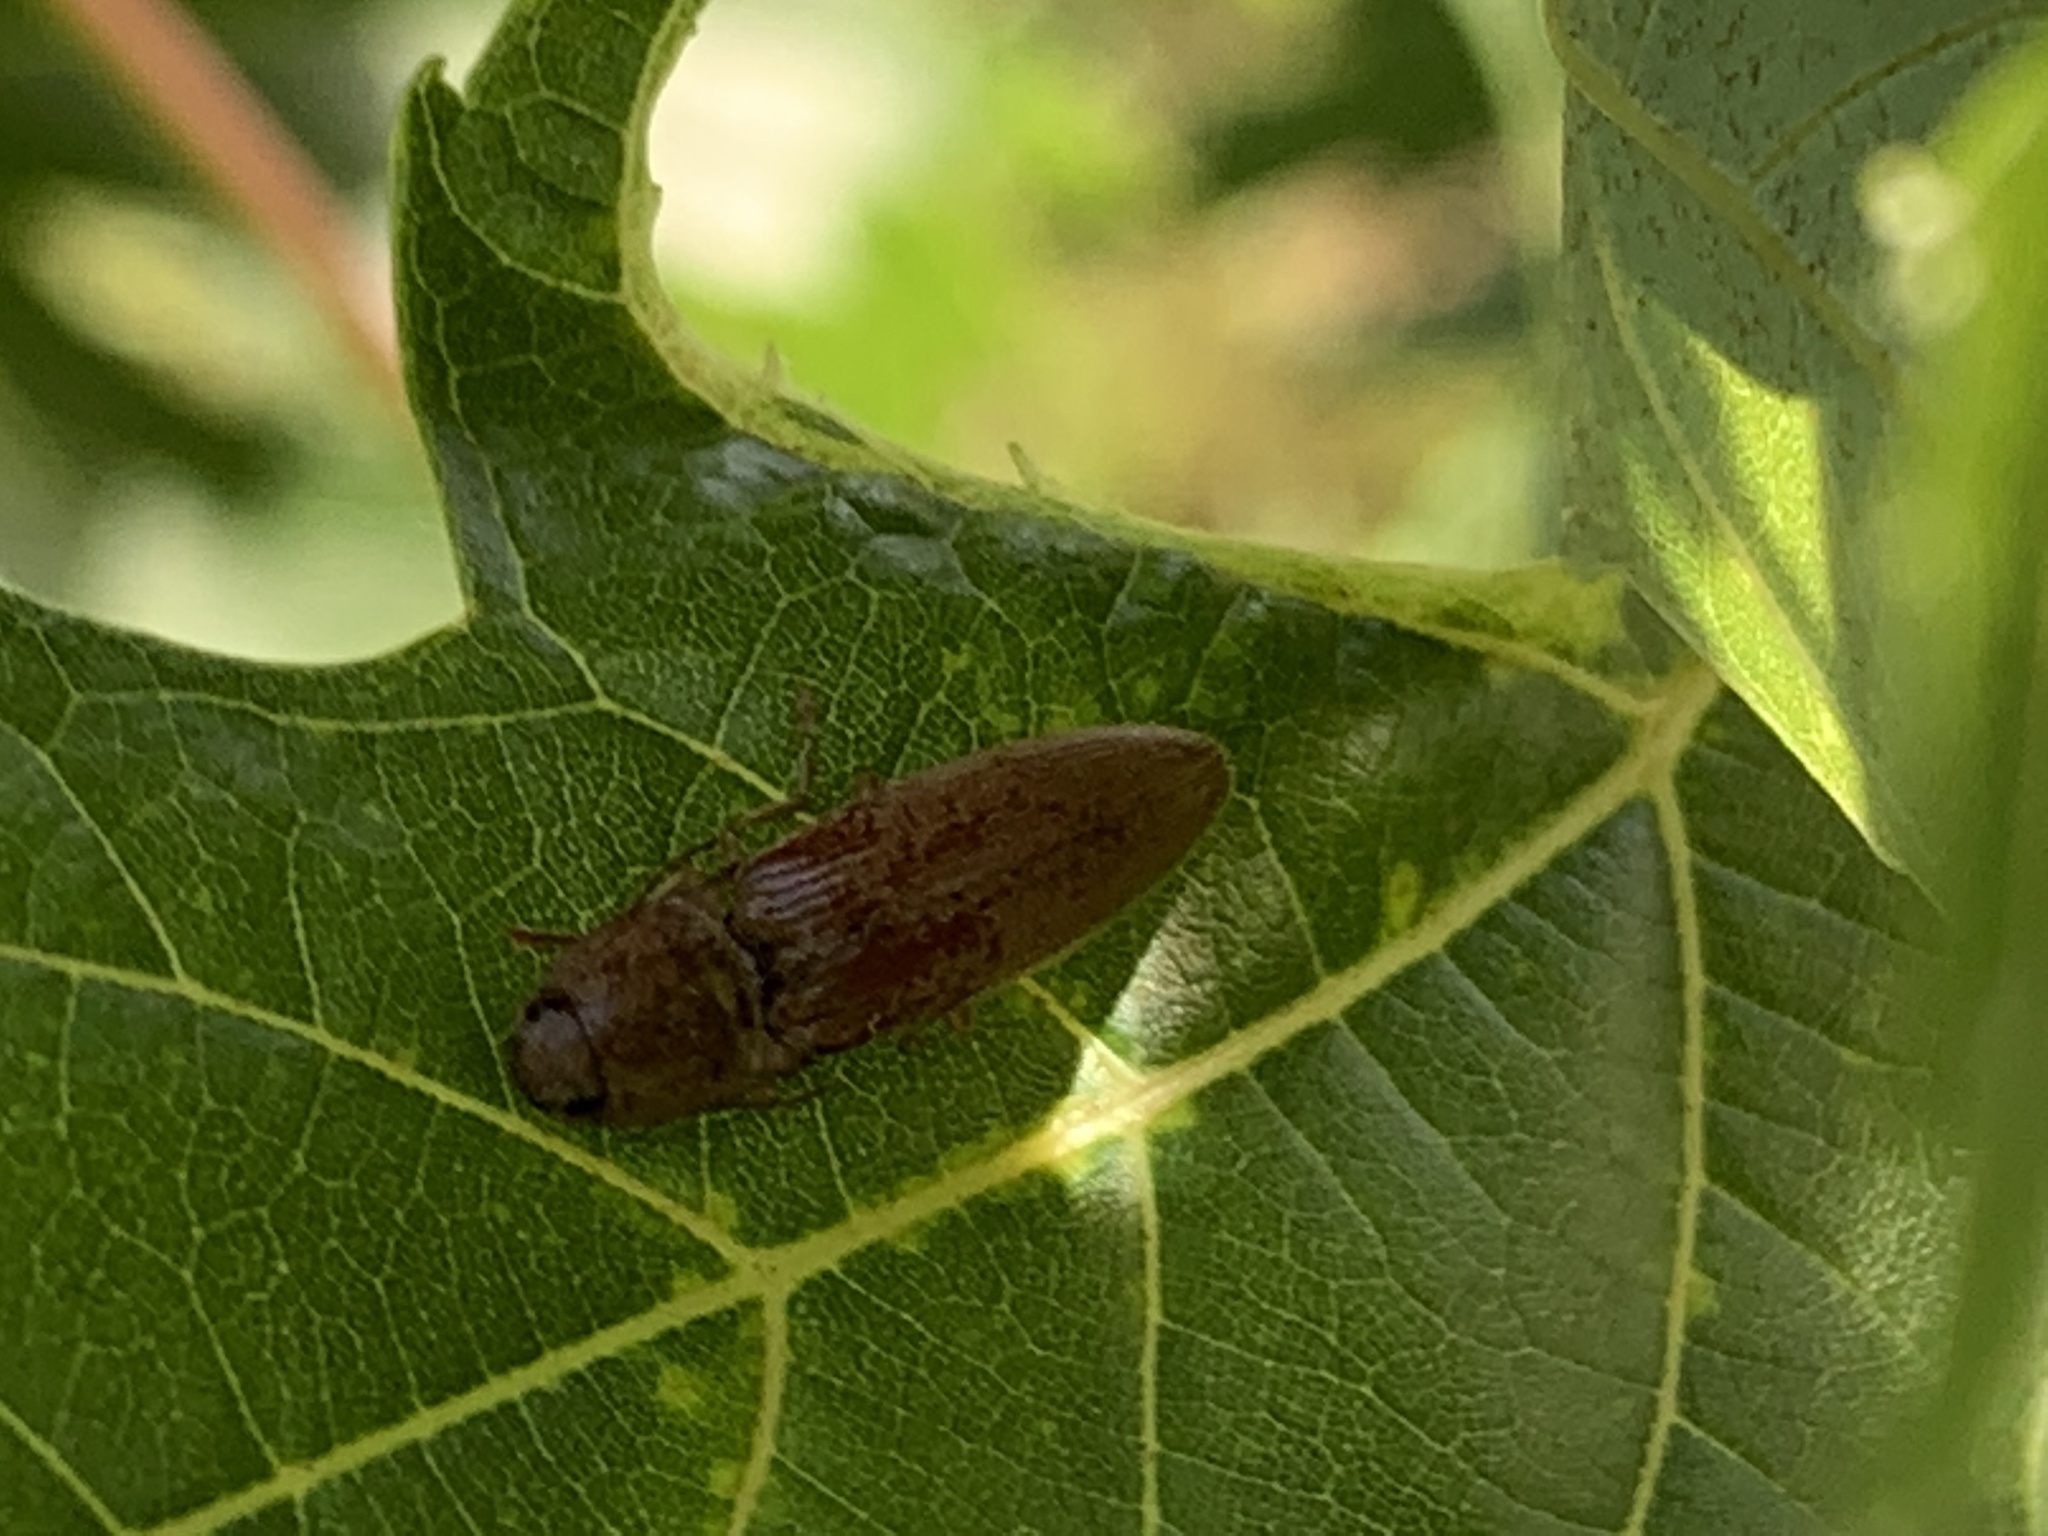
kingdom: Animalia
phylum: Arthropoda
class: Insecta
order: Coleoptera
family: Elateridae
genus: Monocrepidius
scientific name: Monocrepidius lividus
